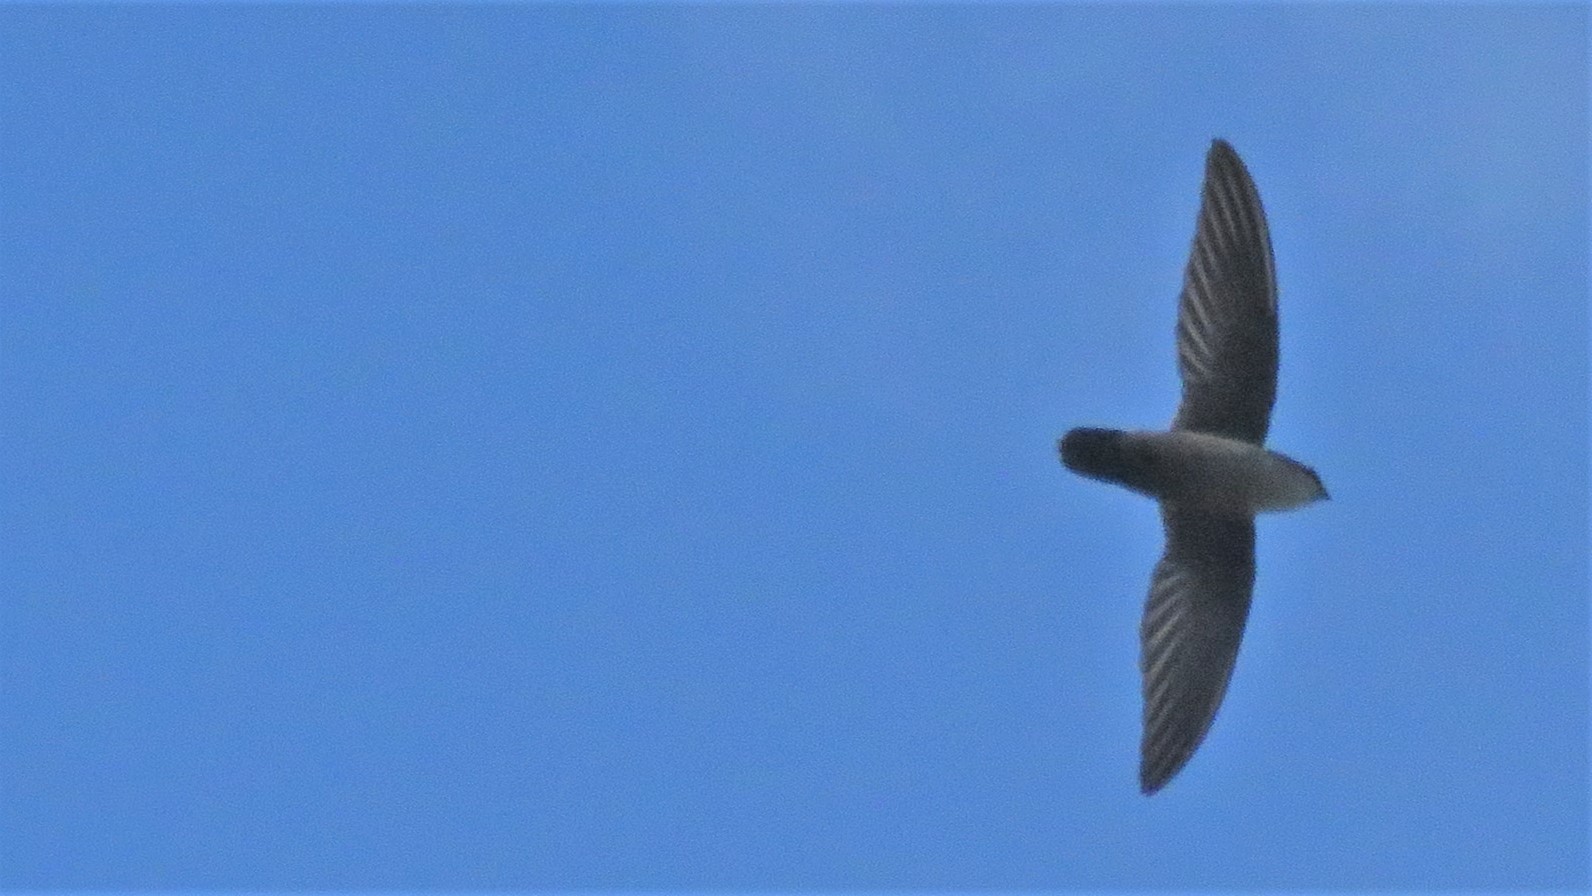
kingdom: Animalia
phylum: Chordata
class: Aves
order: Apodiformes
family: Apodidae
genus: Chaetura
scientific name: Chaetura vauxi
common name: Vaux's swift
